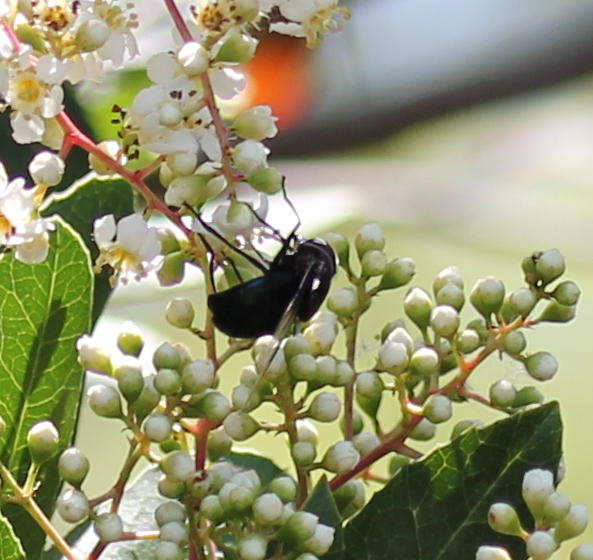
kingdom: Animalia
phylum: Arthropoda
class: Insecta
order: Diptera
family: Syrphidae
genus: Copestylum
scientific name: Copestylum mexicanum
